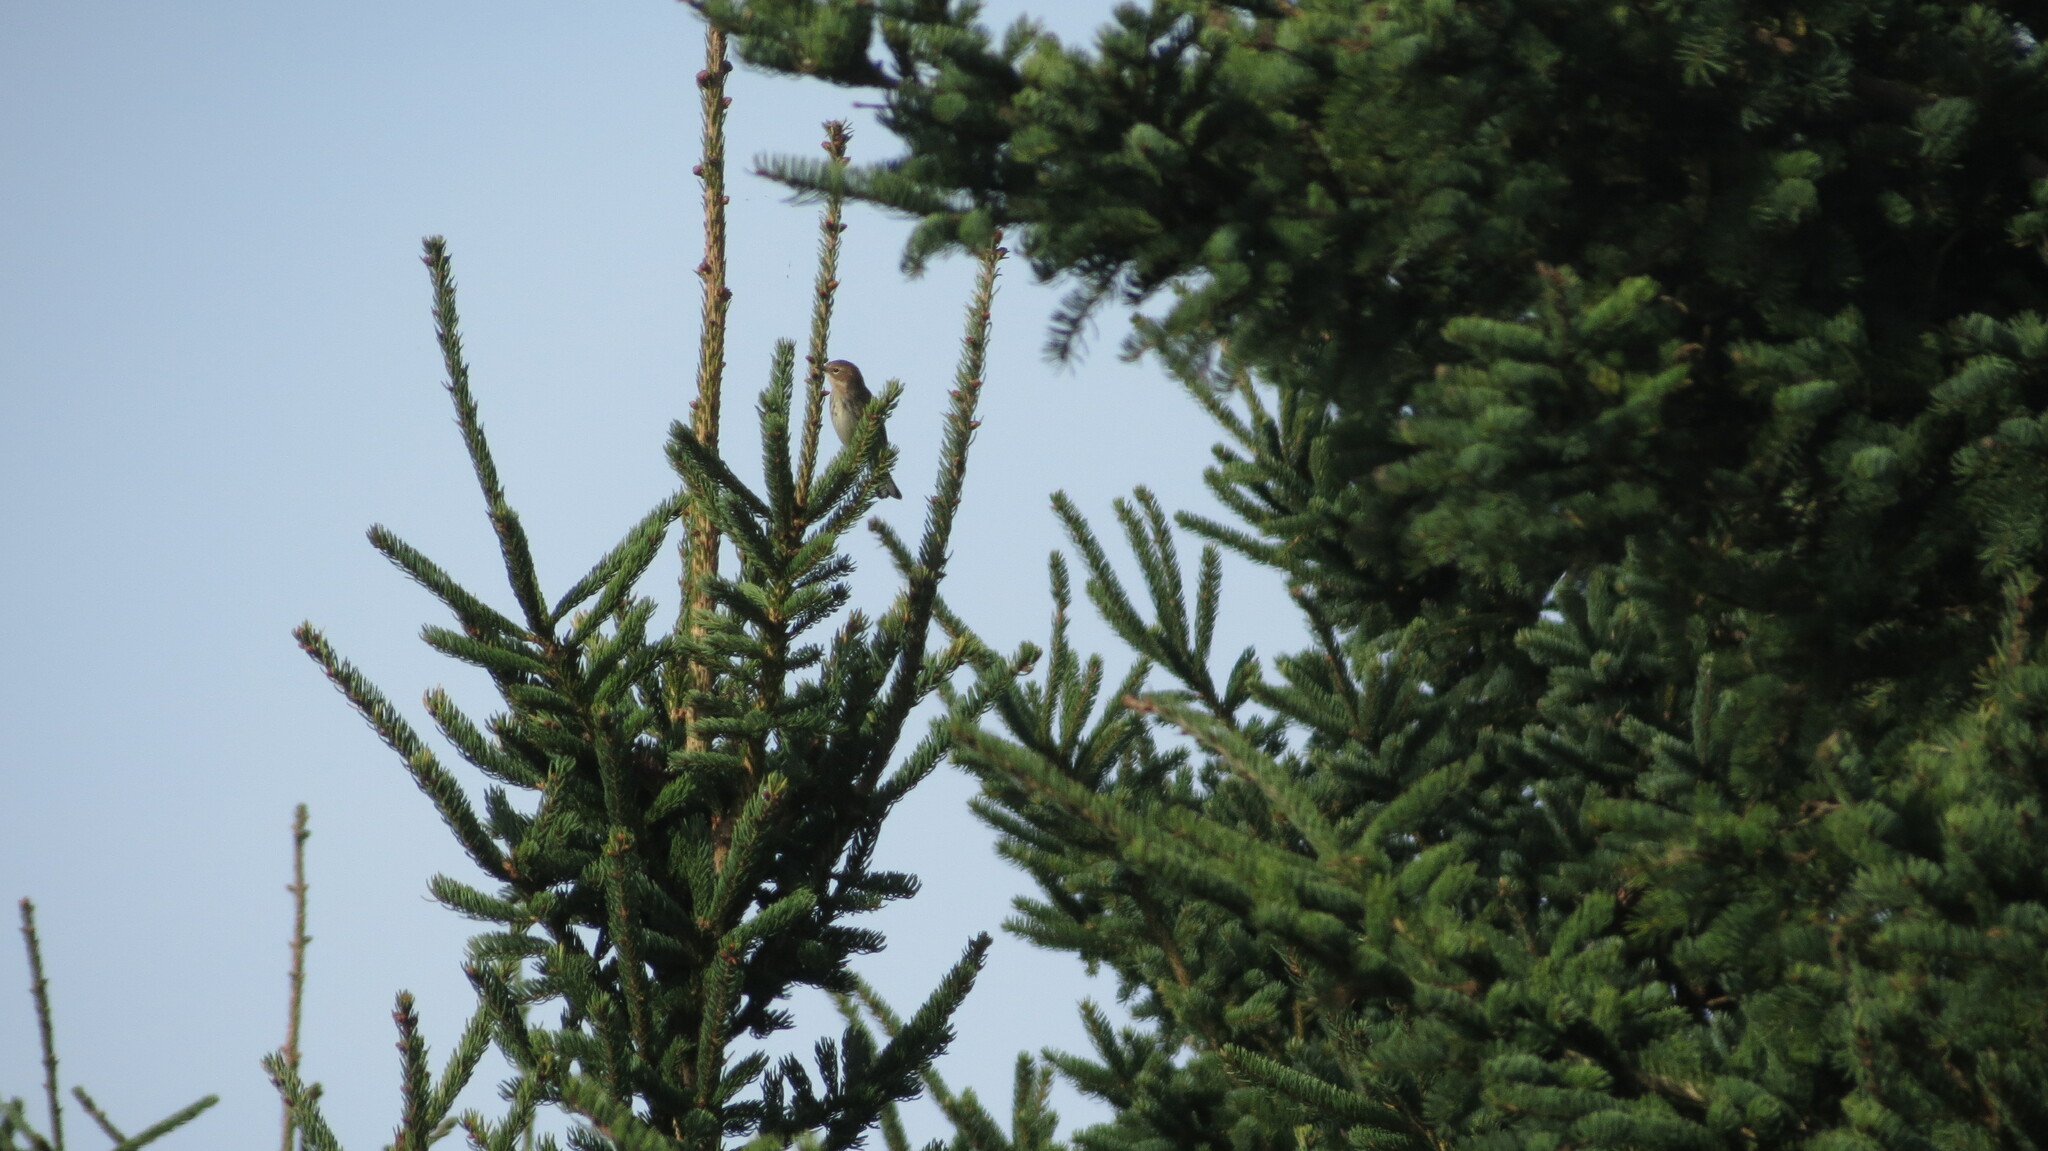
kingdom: Animalia
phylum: Chordata
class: Aves
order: Passeriformes
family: Parulidae
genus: Setophaga
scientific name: Setophaga coronata
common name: Myrtle warbler
